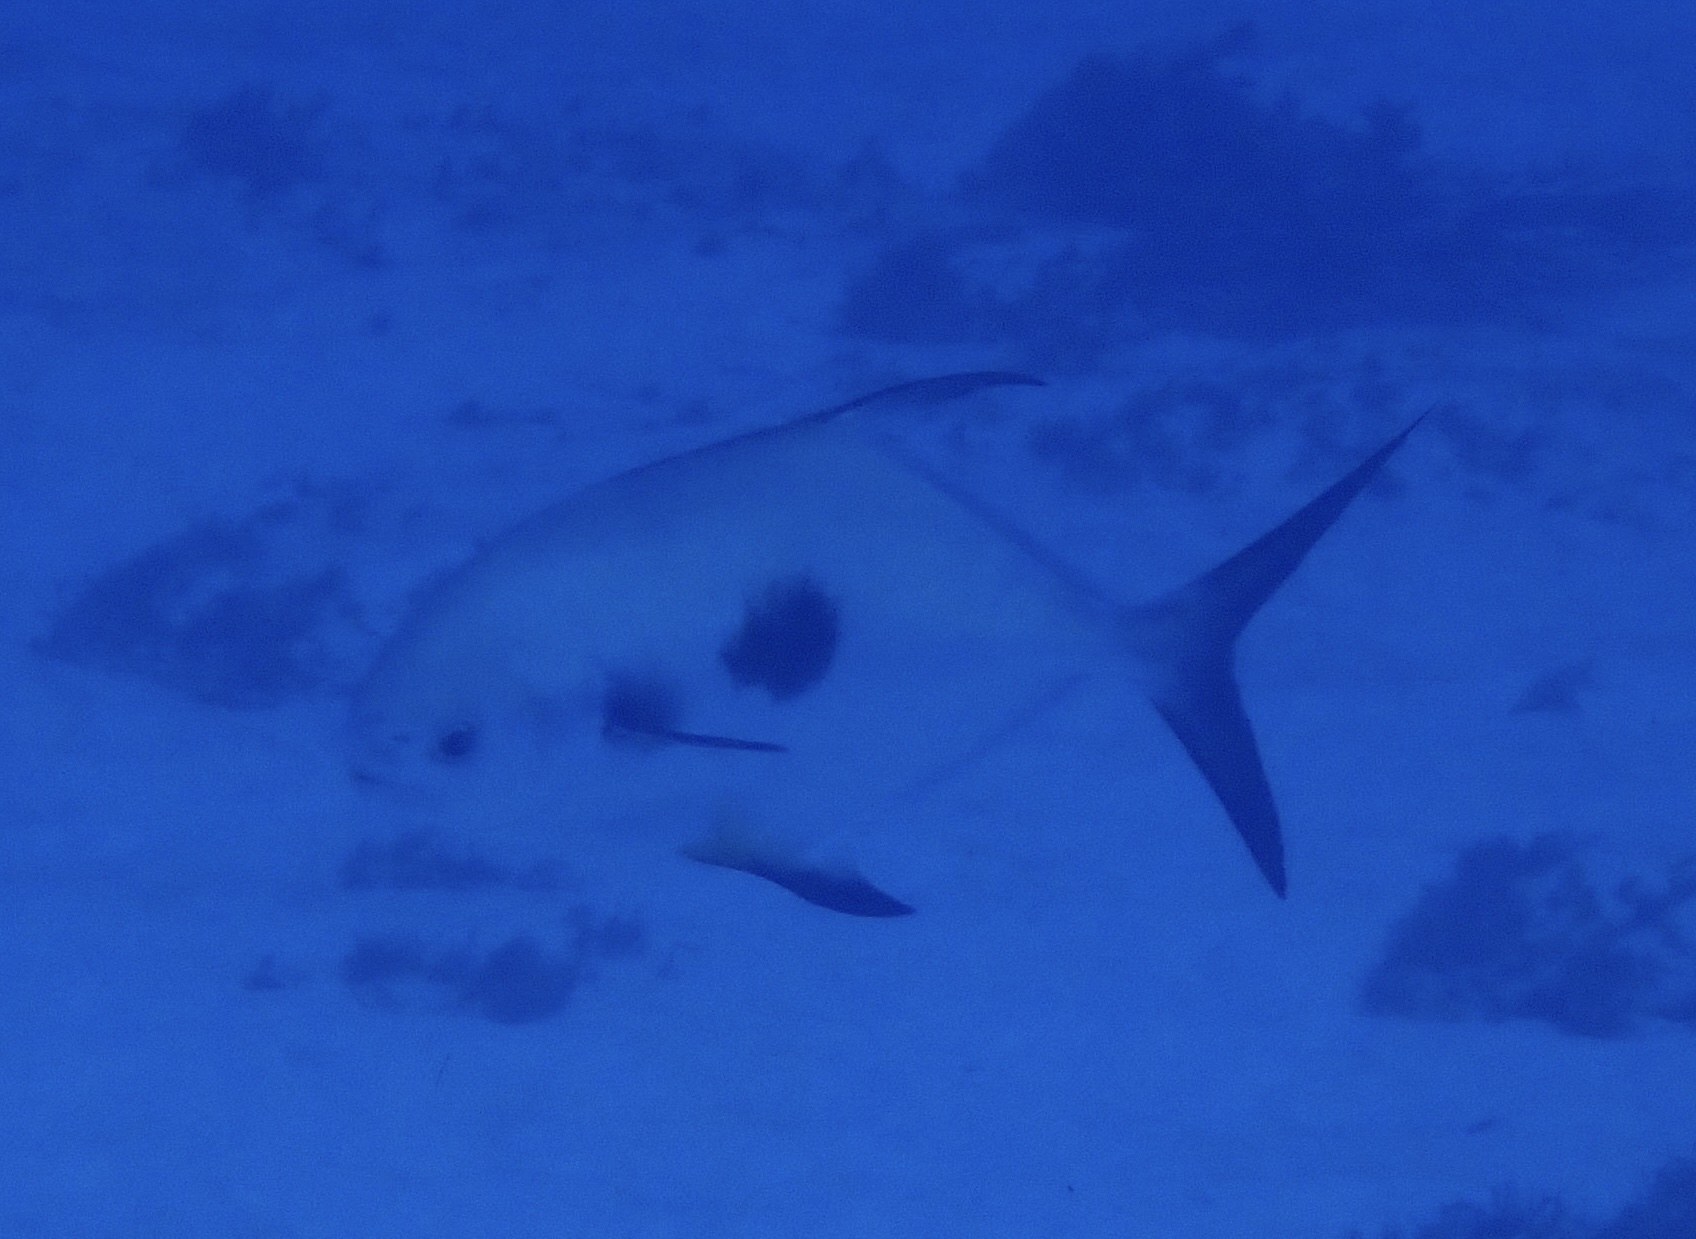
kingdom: Animalia
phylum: Chordata
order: Perciformes
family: Carangidae
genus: Trachinotus
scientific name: Trachinotus falcatus
